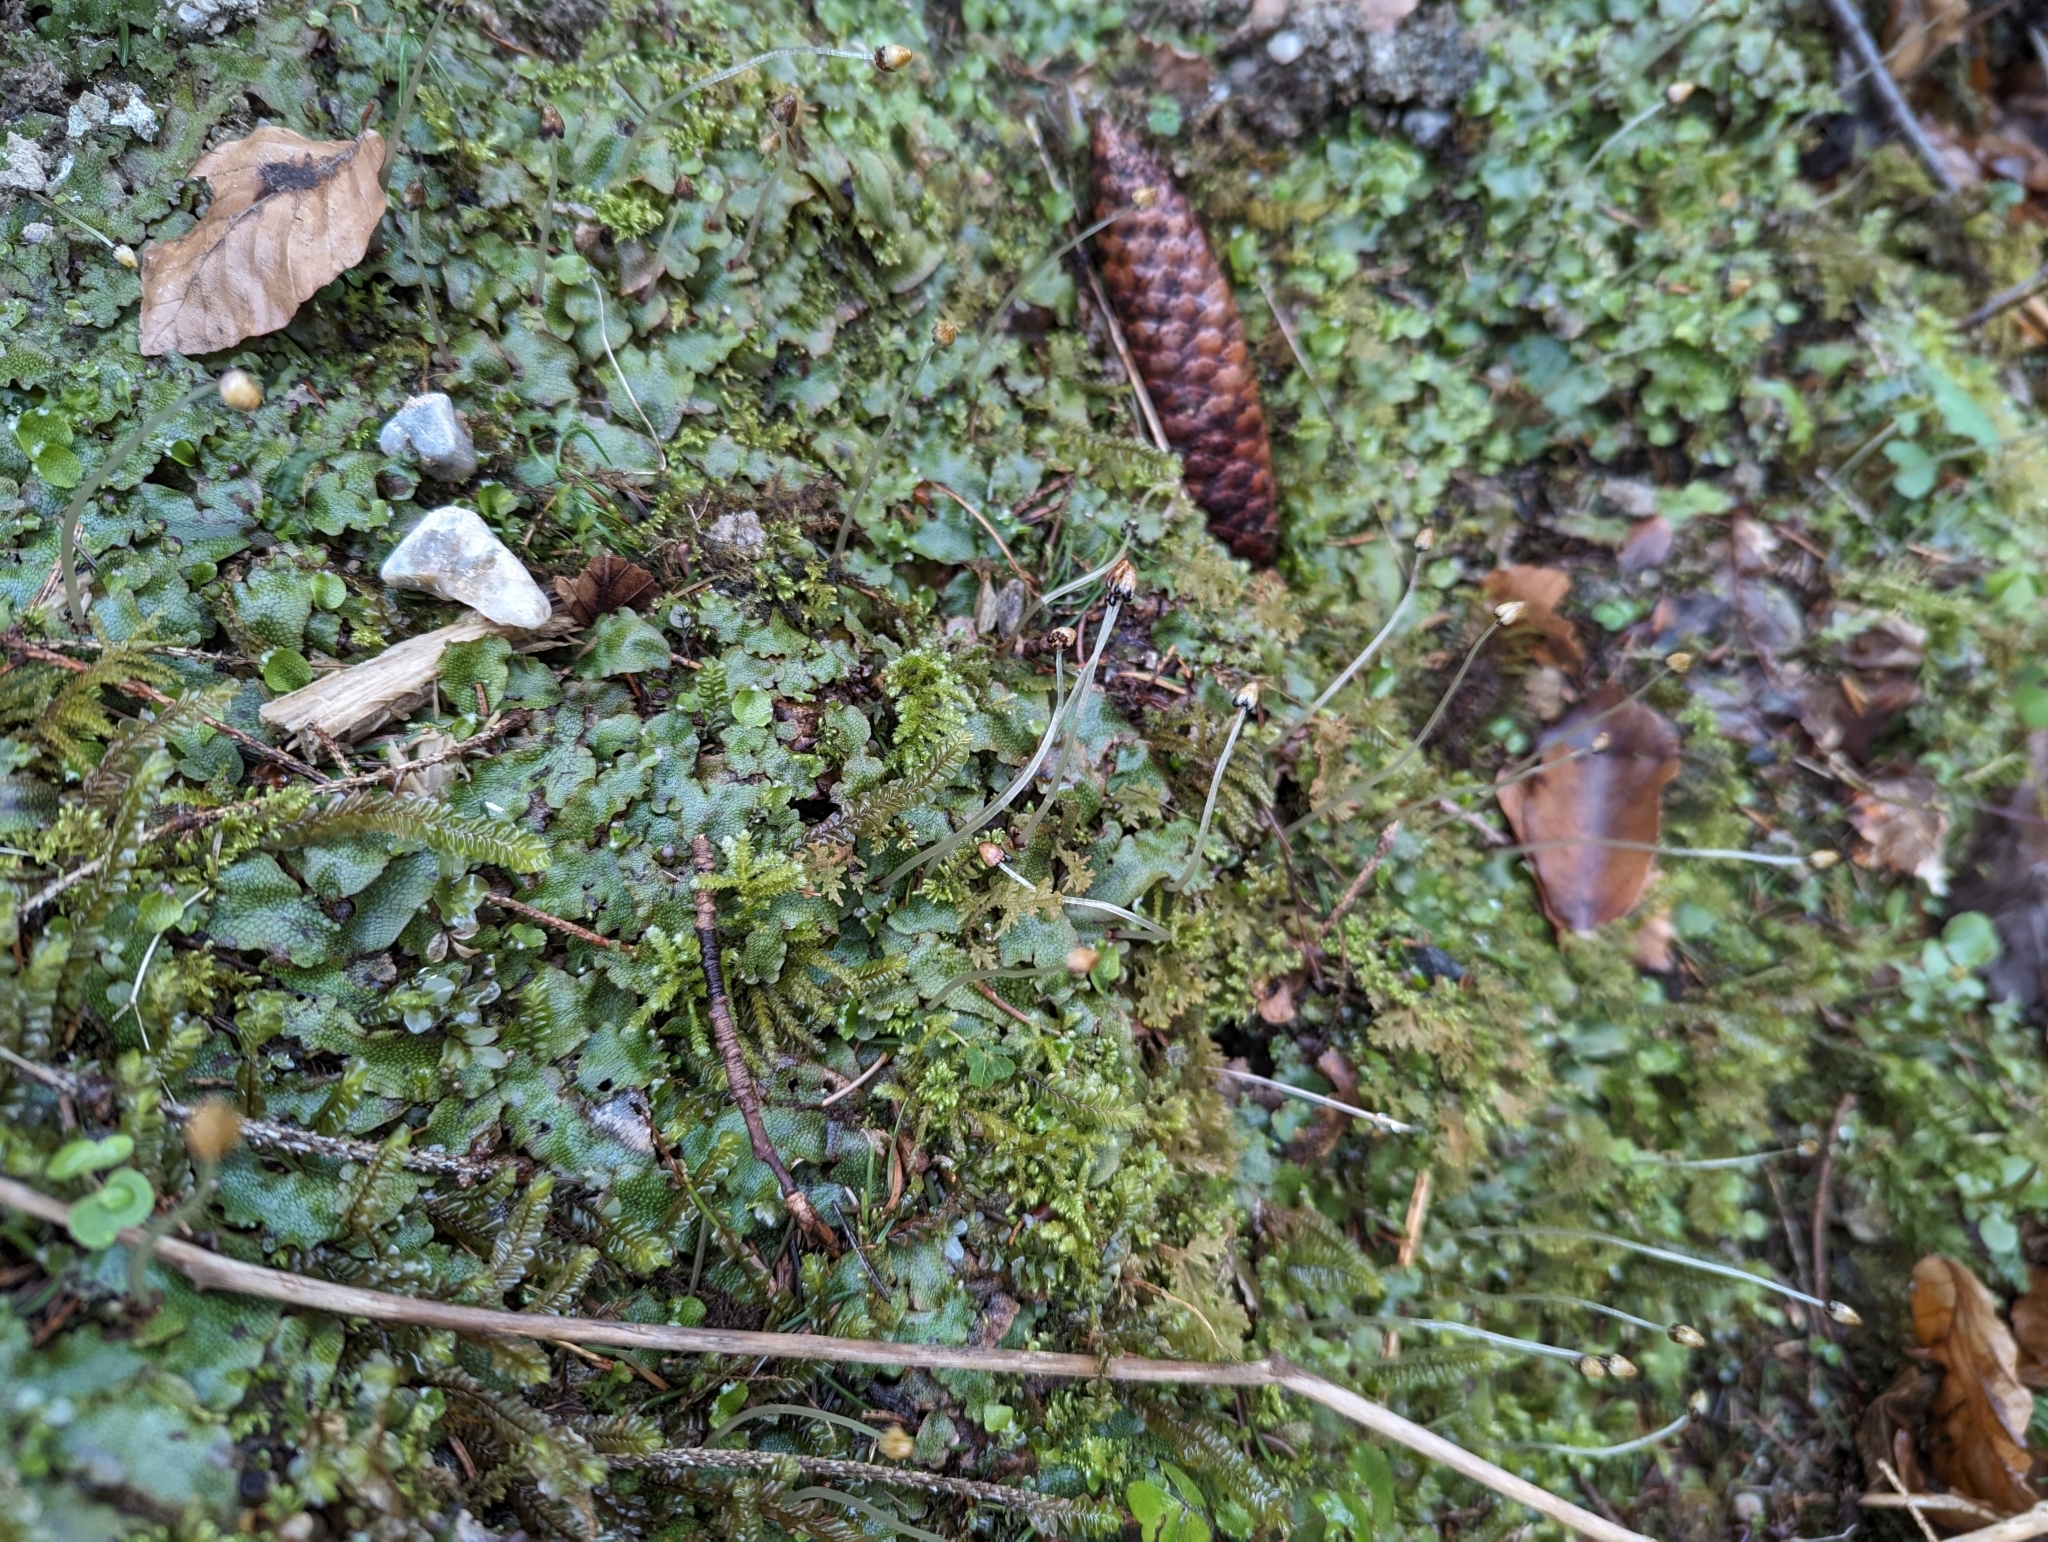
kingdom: Plantae
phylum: Marchantiophyta
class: Marchantiopsida
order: Marchantiales
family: Conocephalaceae
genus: Conocephalum
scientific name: Conocephalum salebrosum
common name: Cat-tongue liverwort
